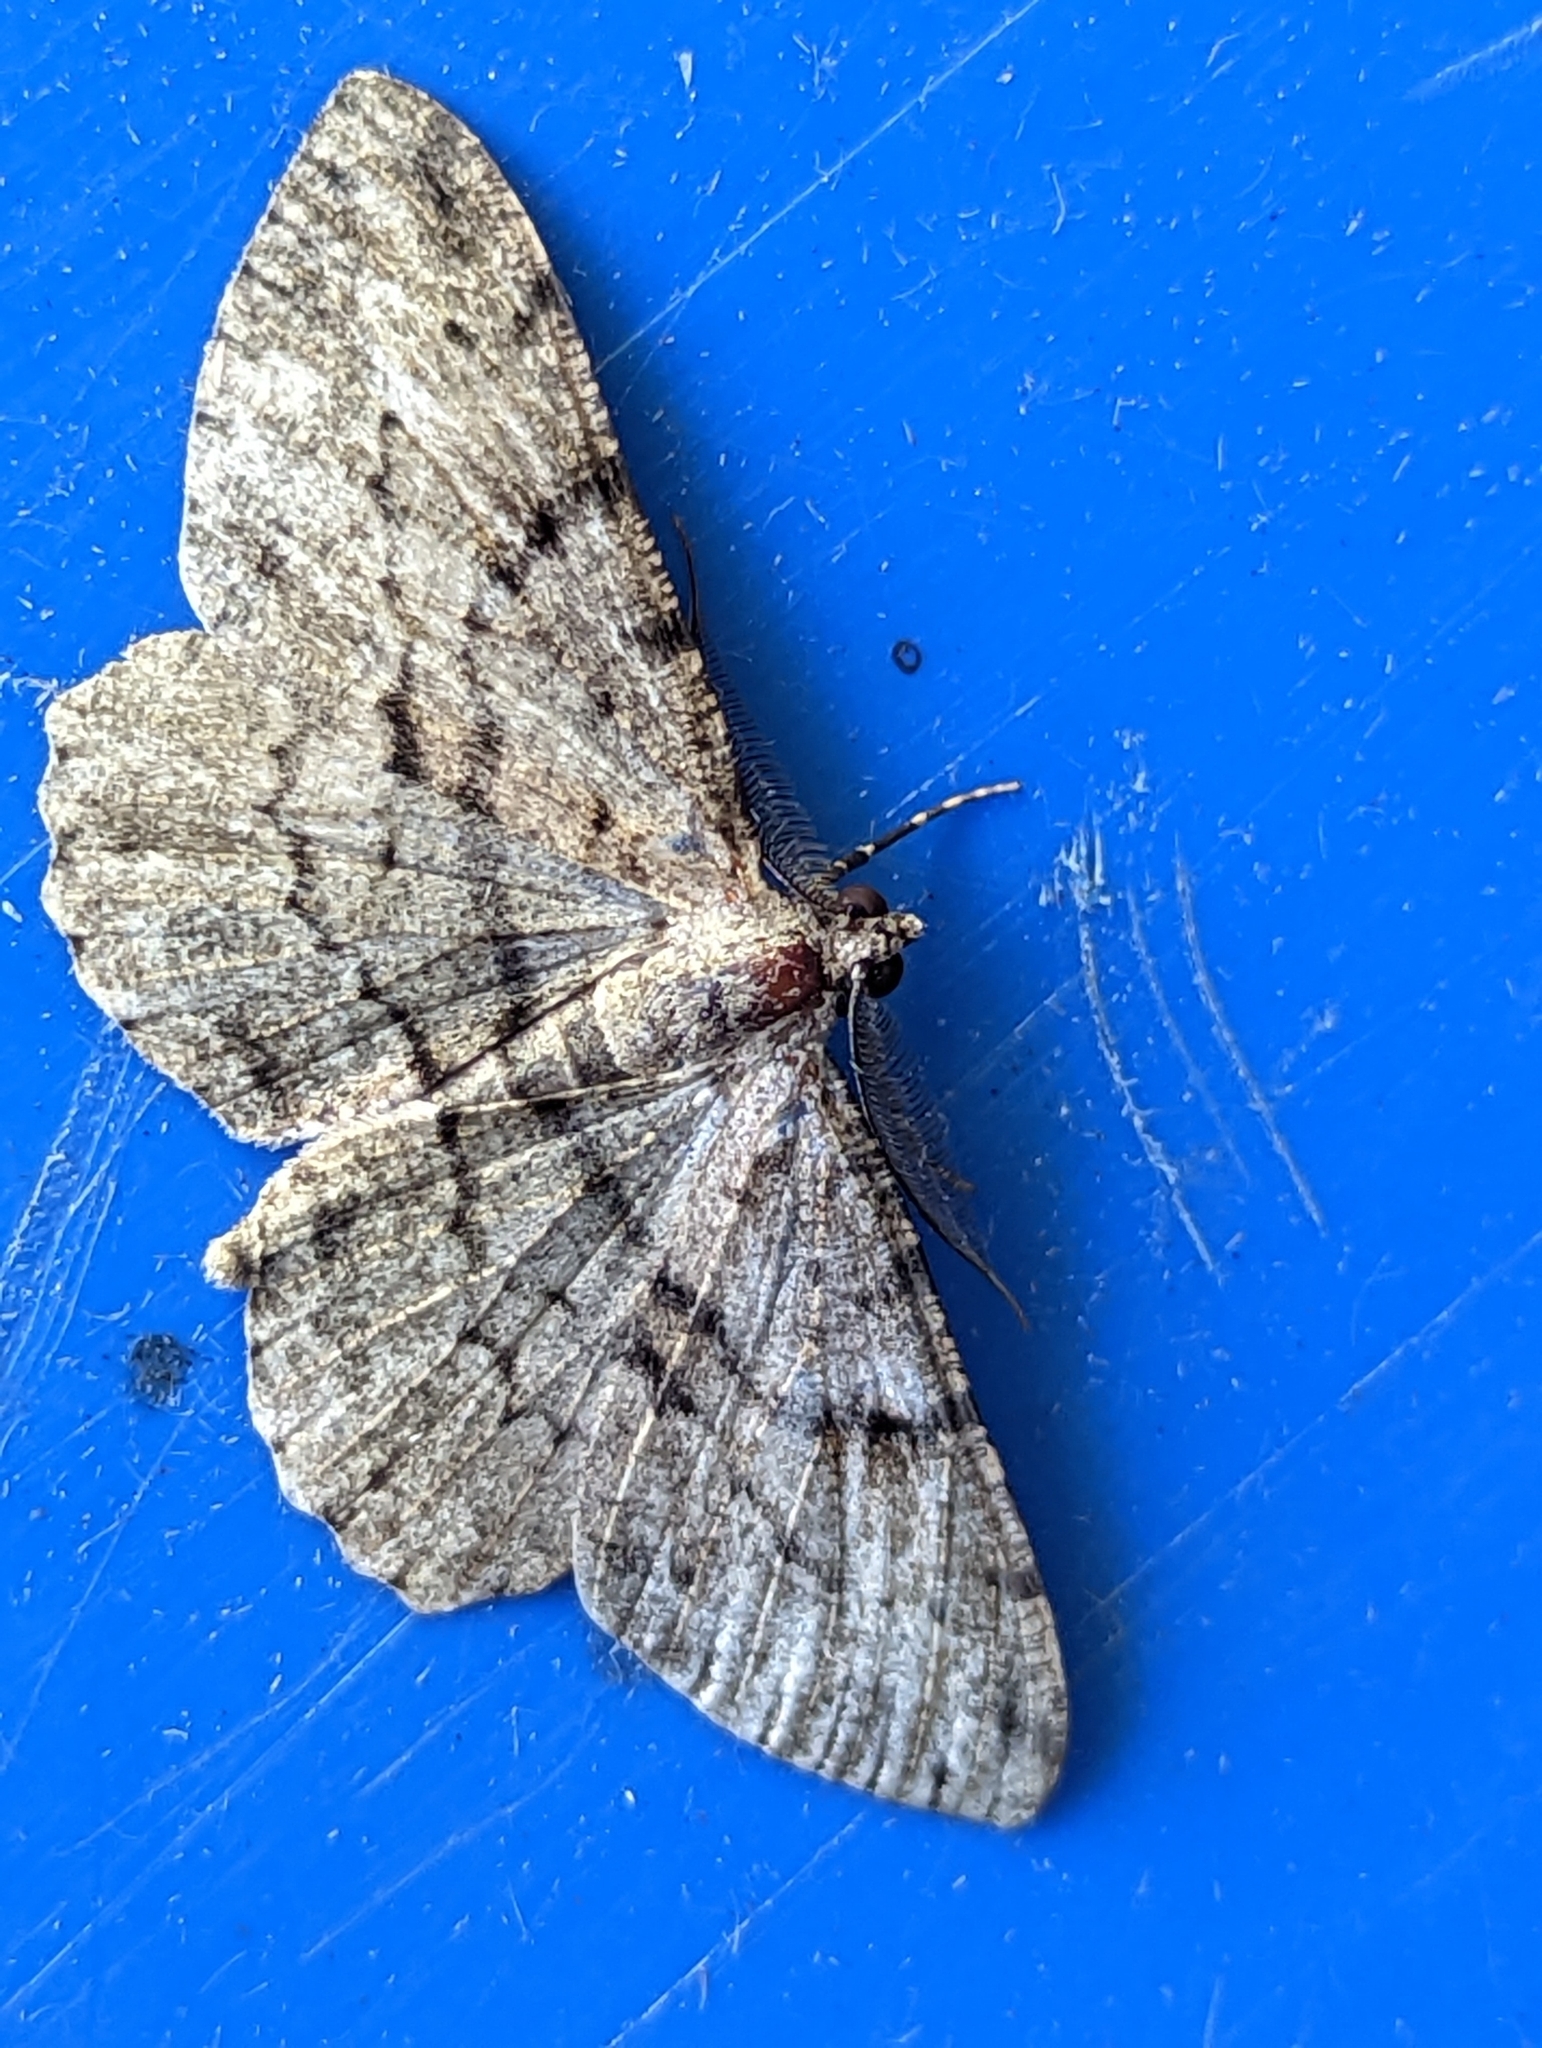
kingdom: Animalia
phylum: Arthropoda
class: Insecta
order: Lepidoptera
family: Geometridae
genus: Peribatodes
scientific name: Peribatodes rhomboidaria
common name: Willow beauty
